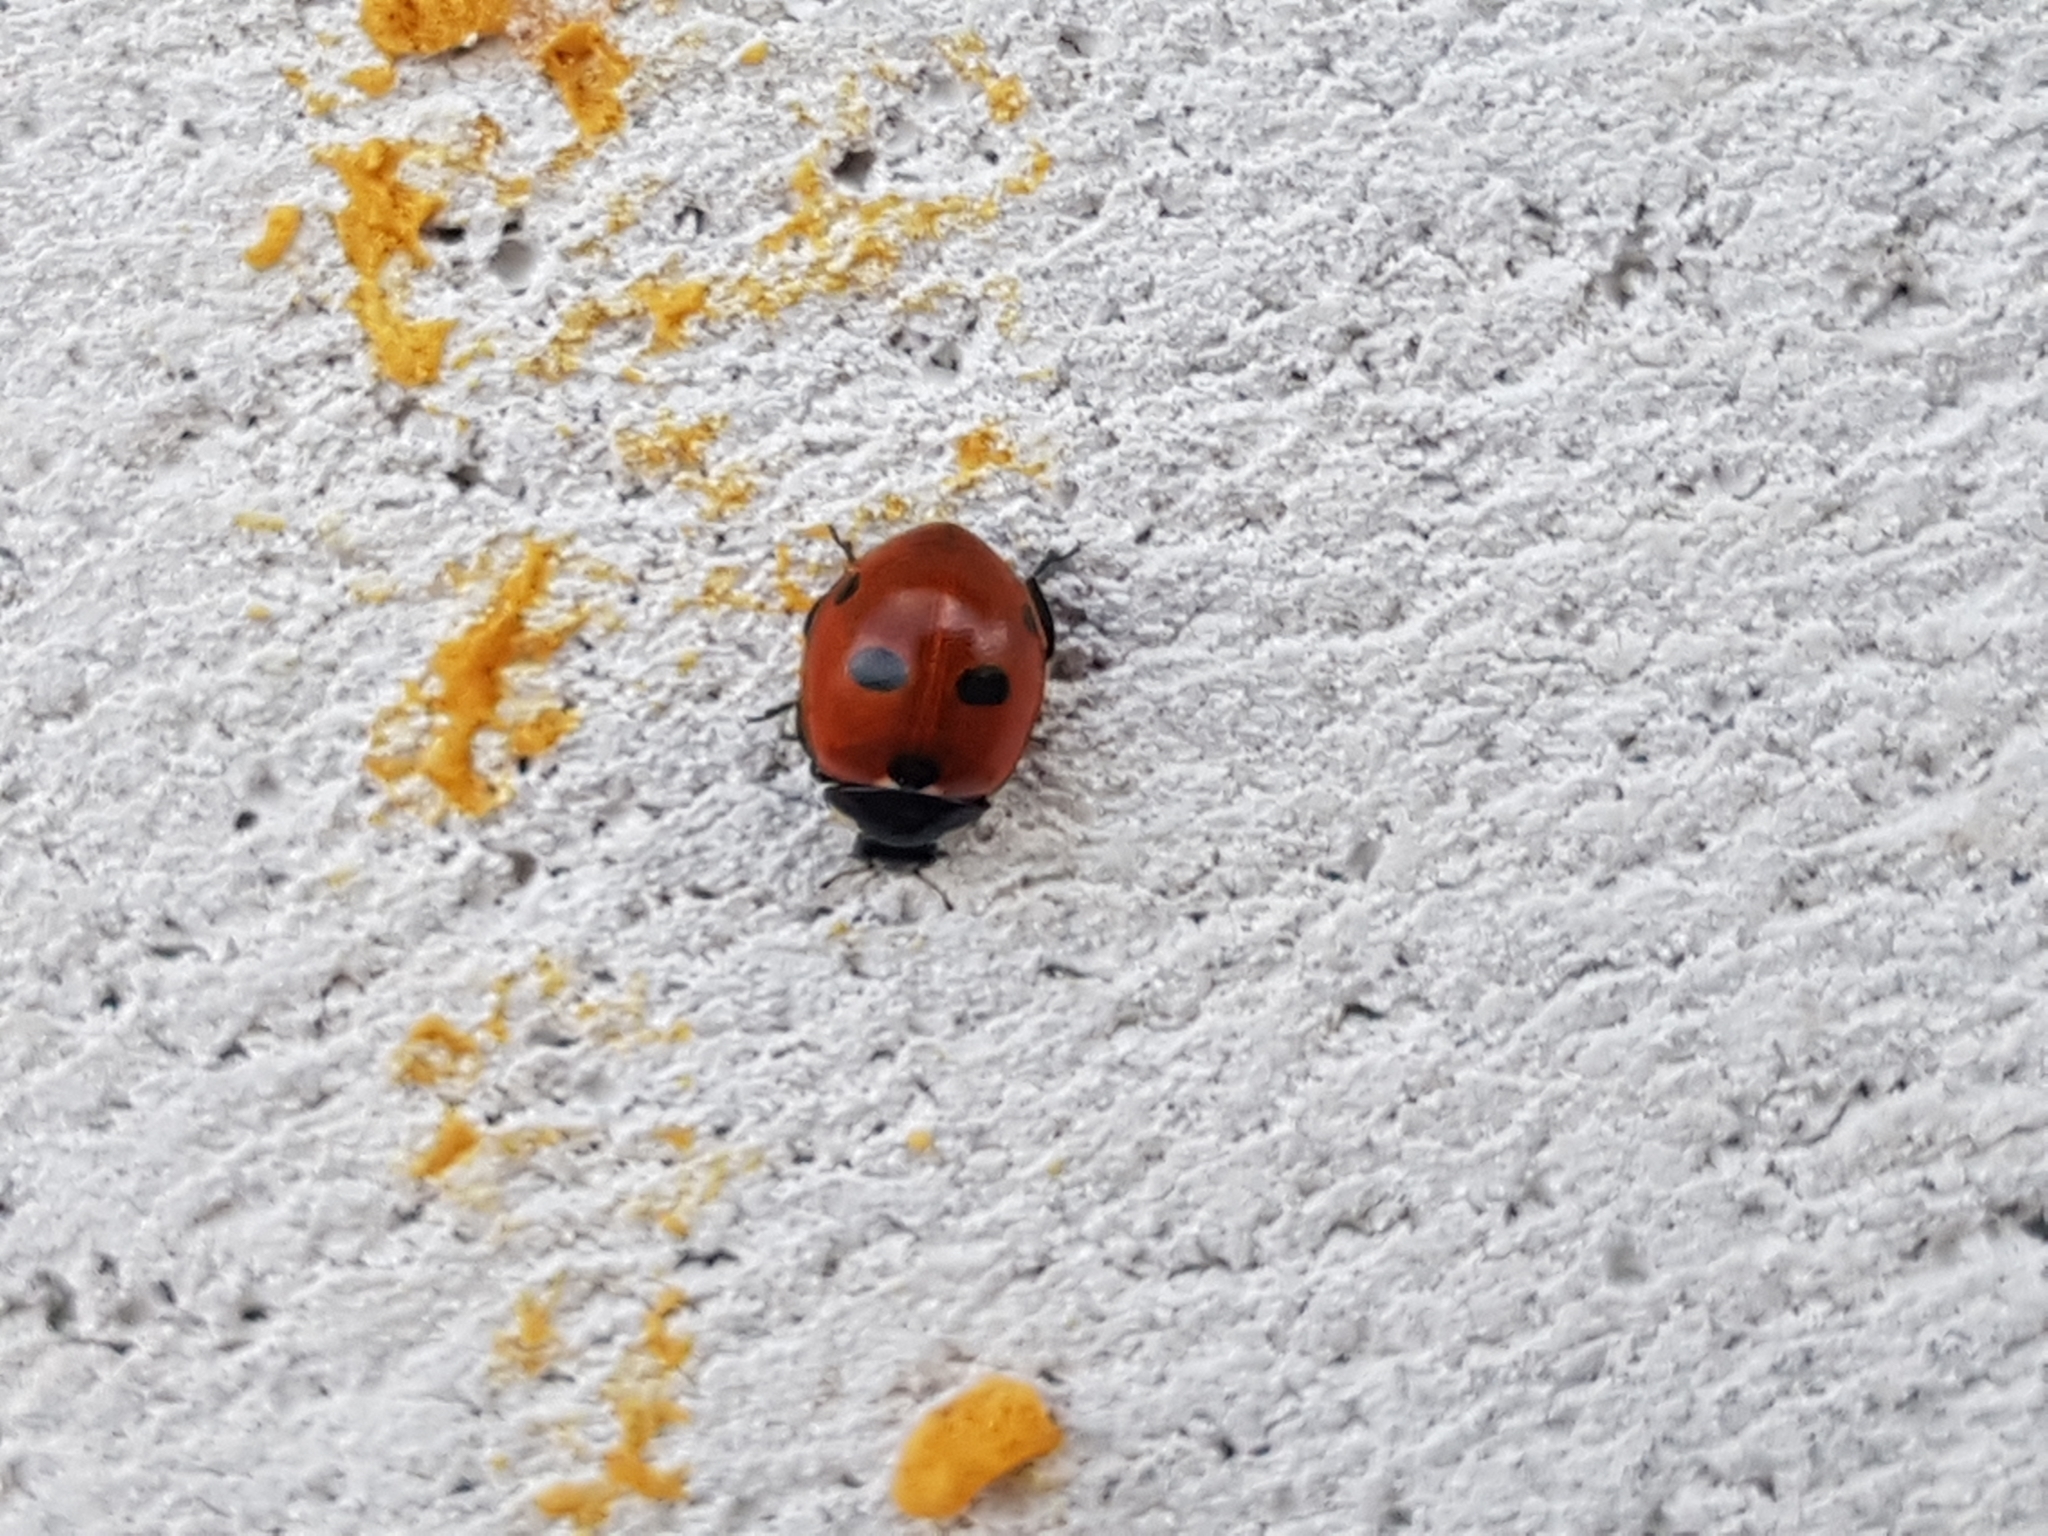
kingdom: Animalia
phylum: Arthropoda
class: Insecta
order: Coleoptera
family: Coccinellidae
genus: Coccinella
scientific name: Coccinella quinquepunctata
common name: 5-spot ladybird
